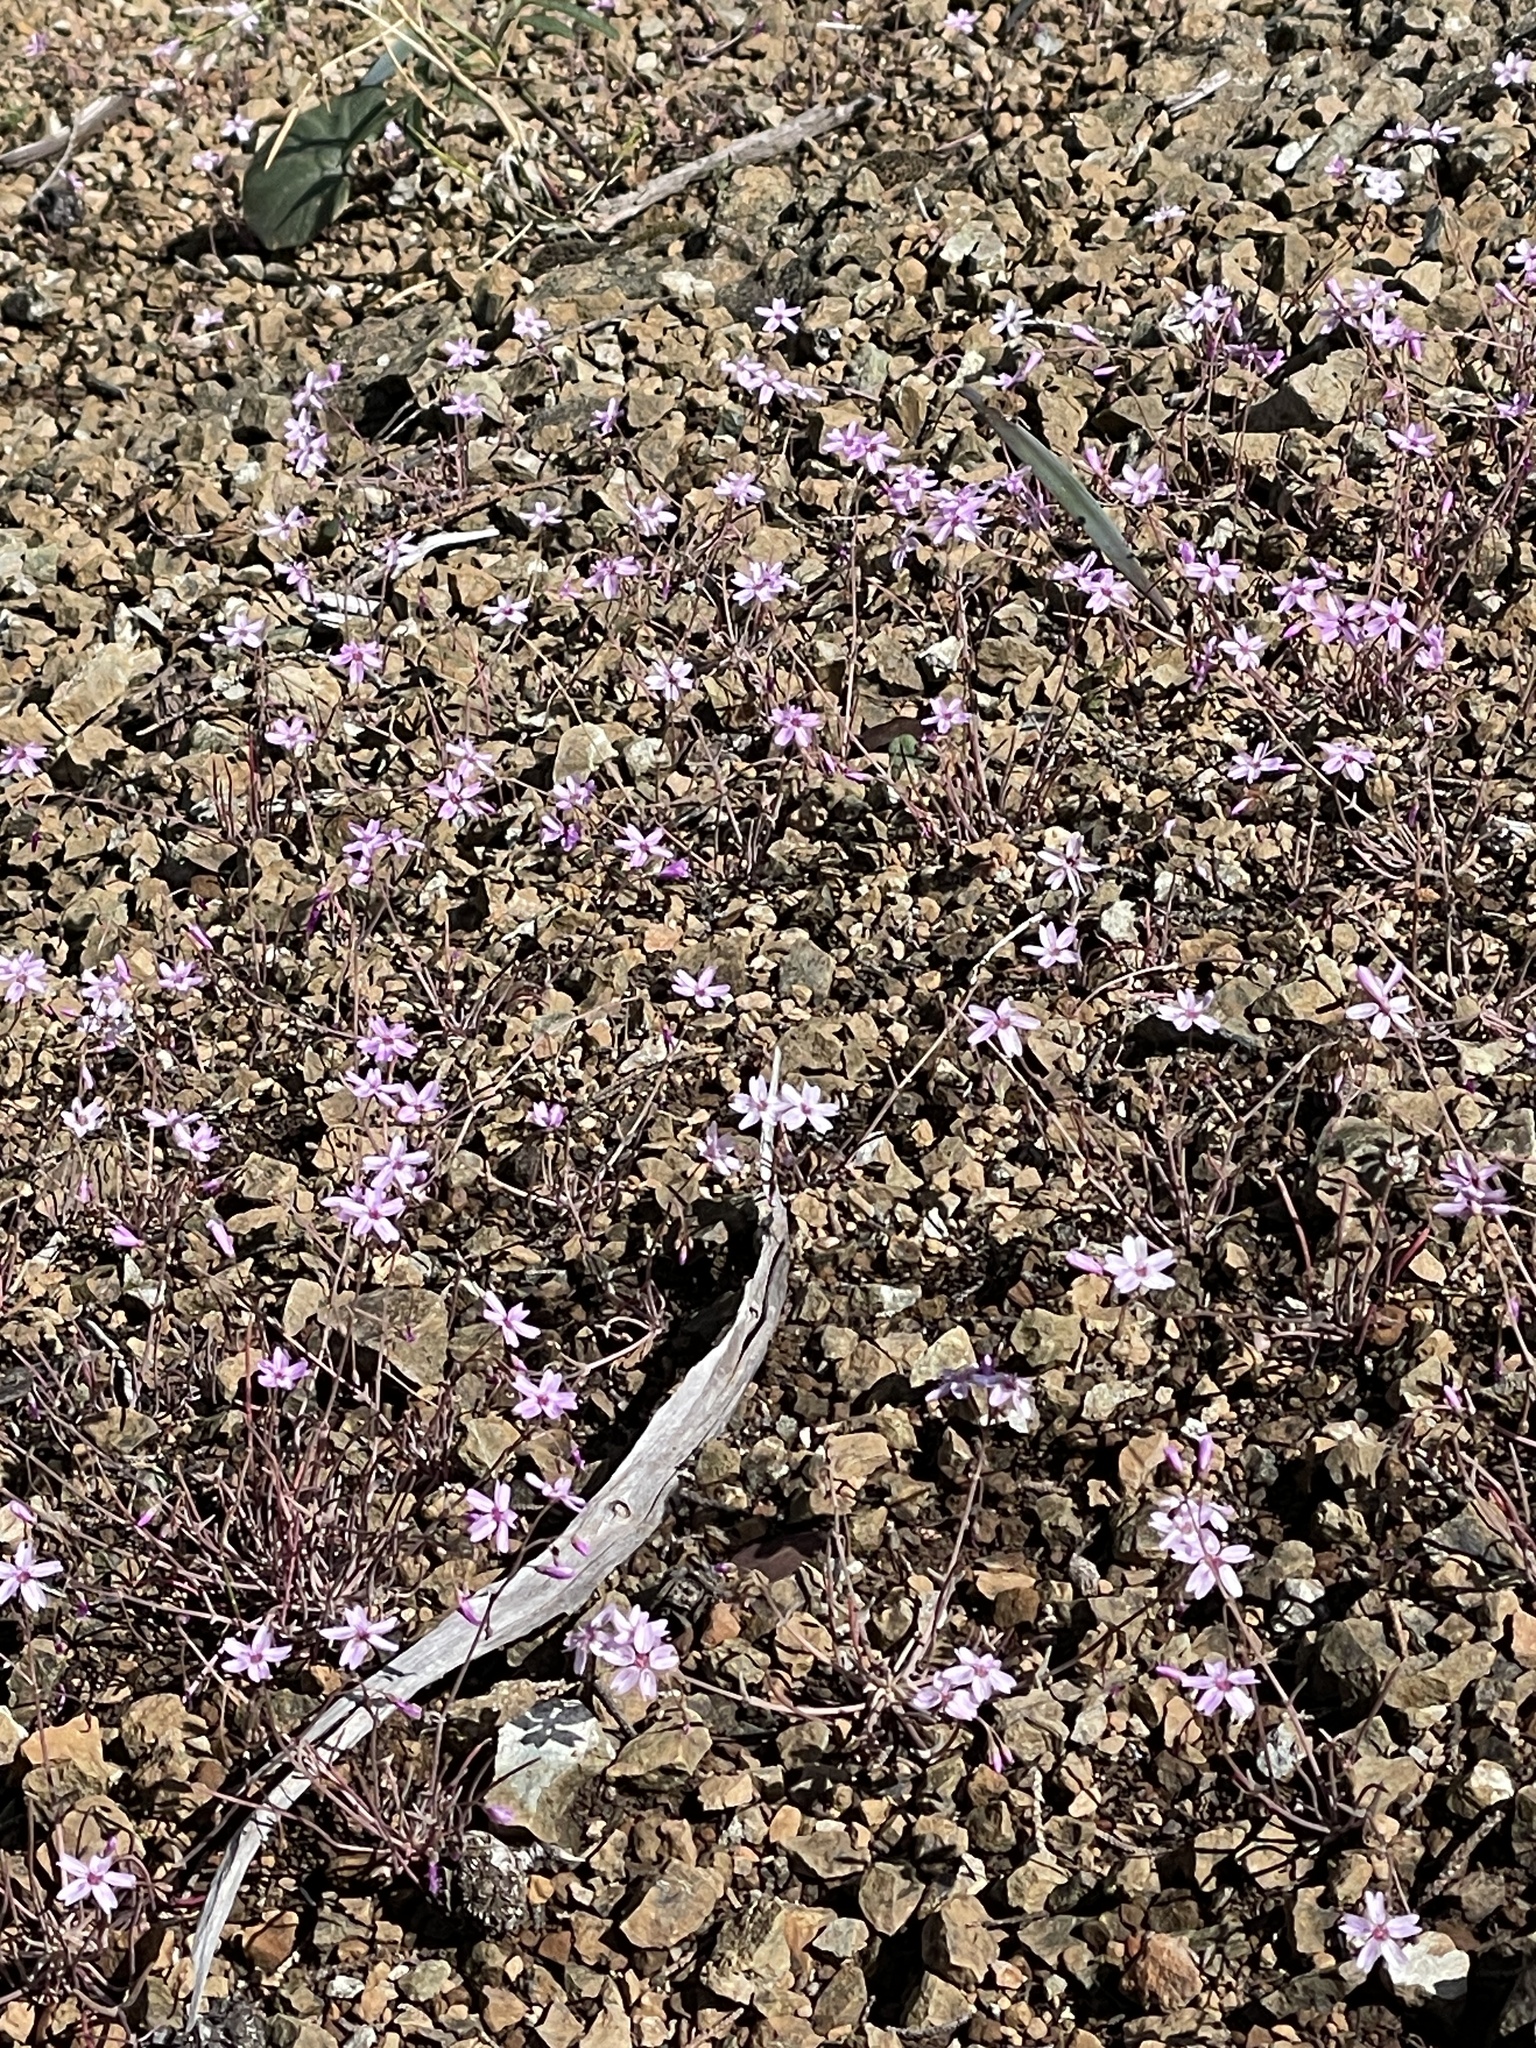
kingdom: Plantae
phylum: Tracheophyta
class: Magnoliopsida
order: Caryophyllales
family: Montiaceae
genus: Claytonia
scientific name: Claytonia gypsophiloides
